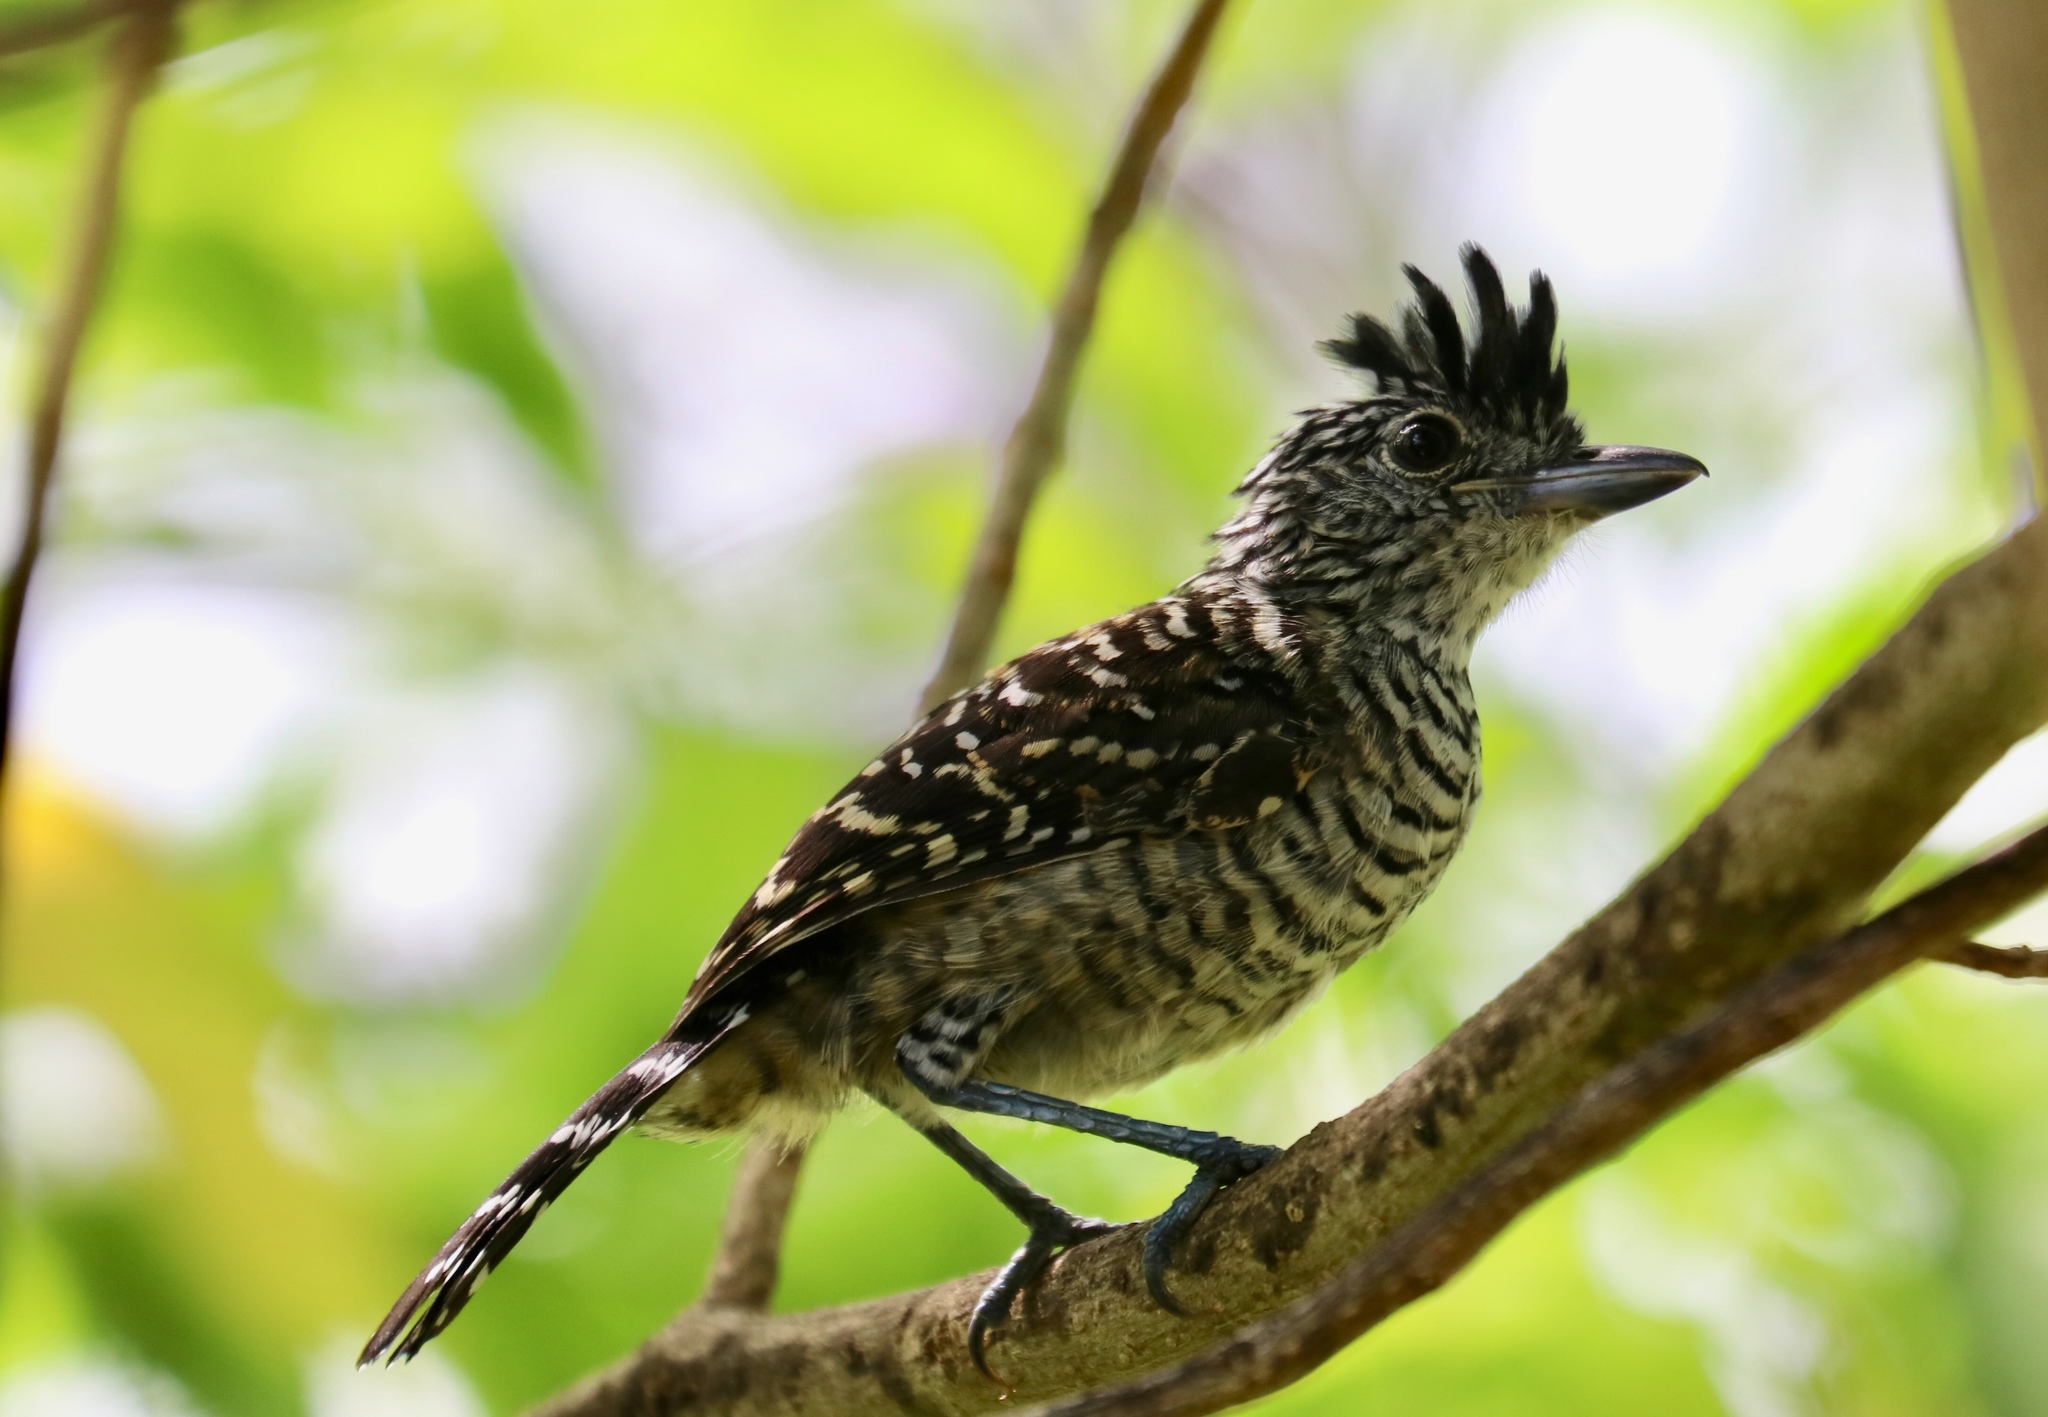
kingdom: Animalia
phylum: Chordata
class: Aves
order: Passeriformes
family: Thamnophilidae
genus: Thamnophilus
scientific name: Thamnophilus doliatus
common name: Barred antshrike
